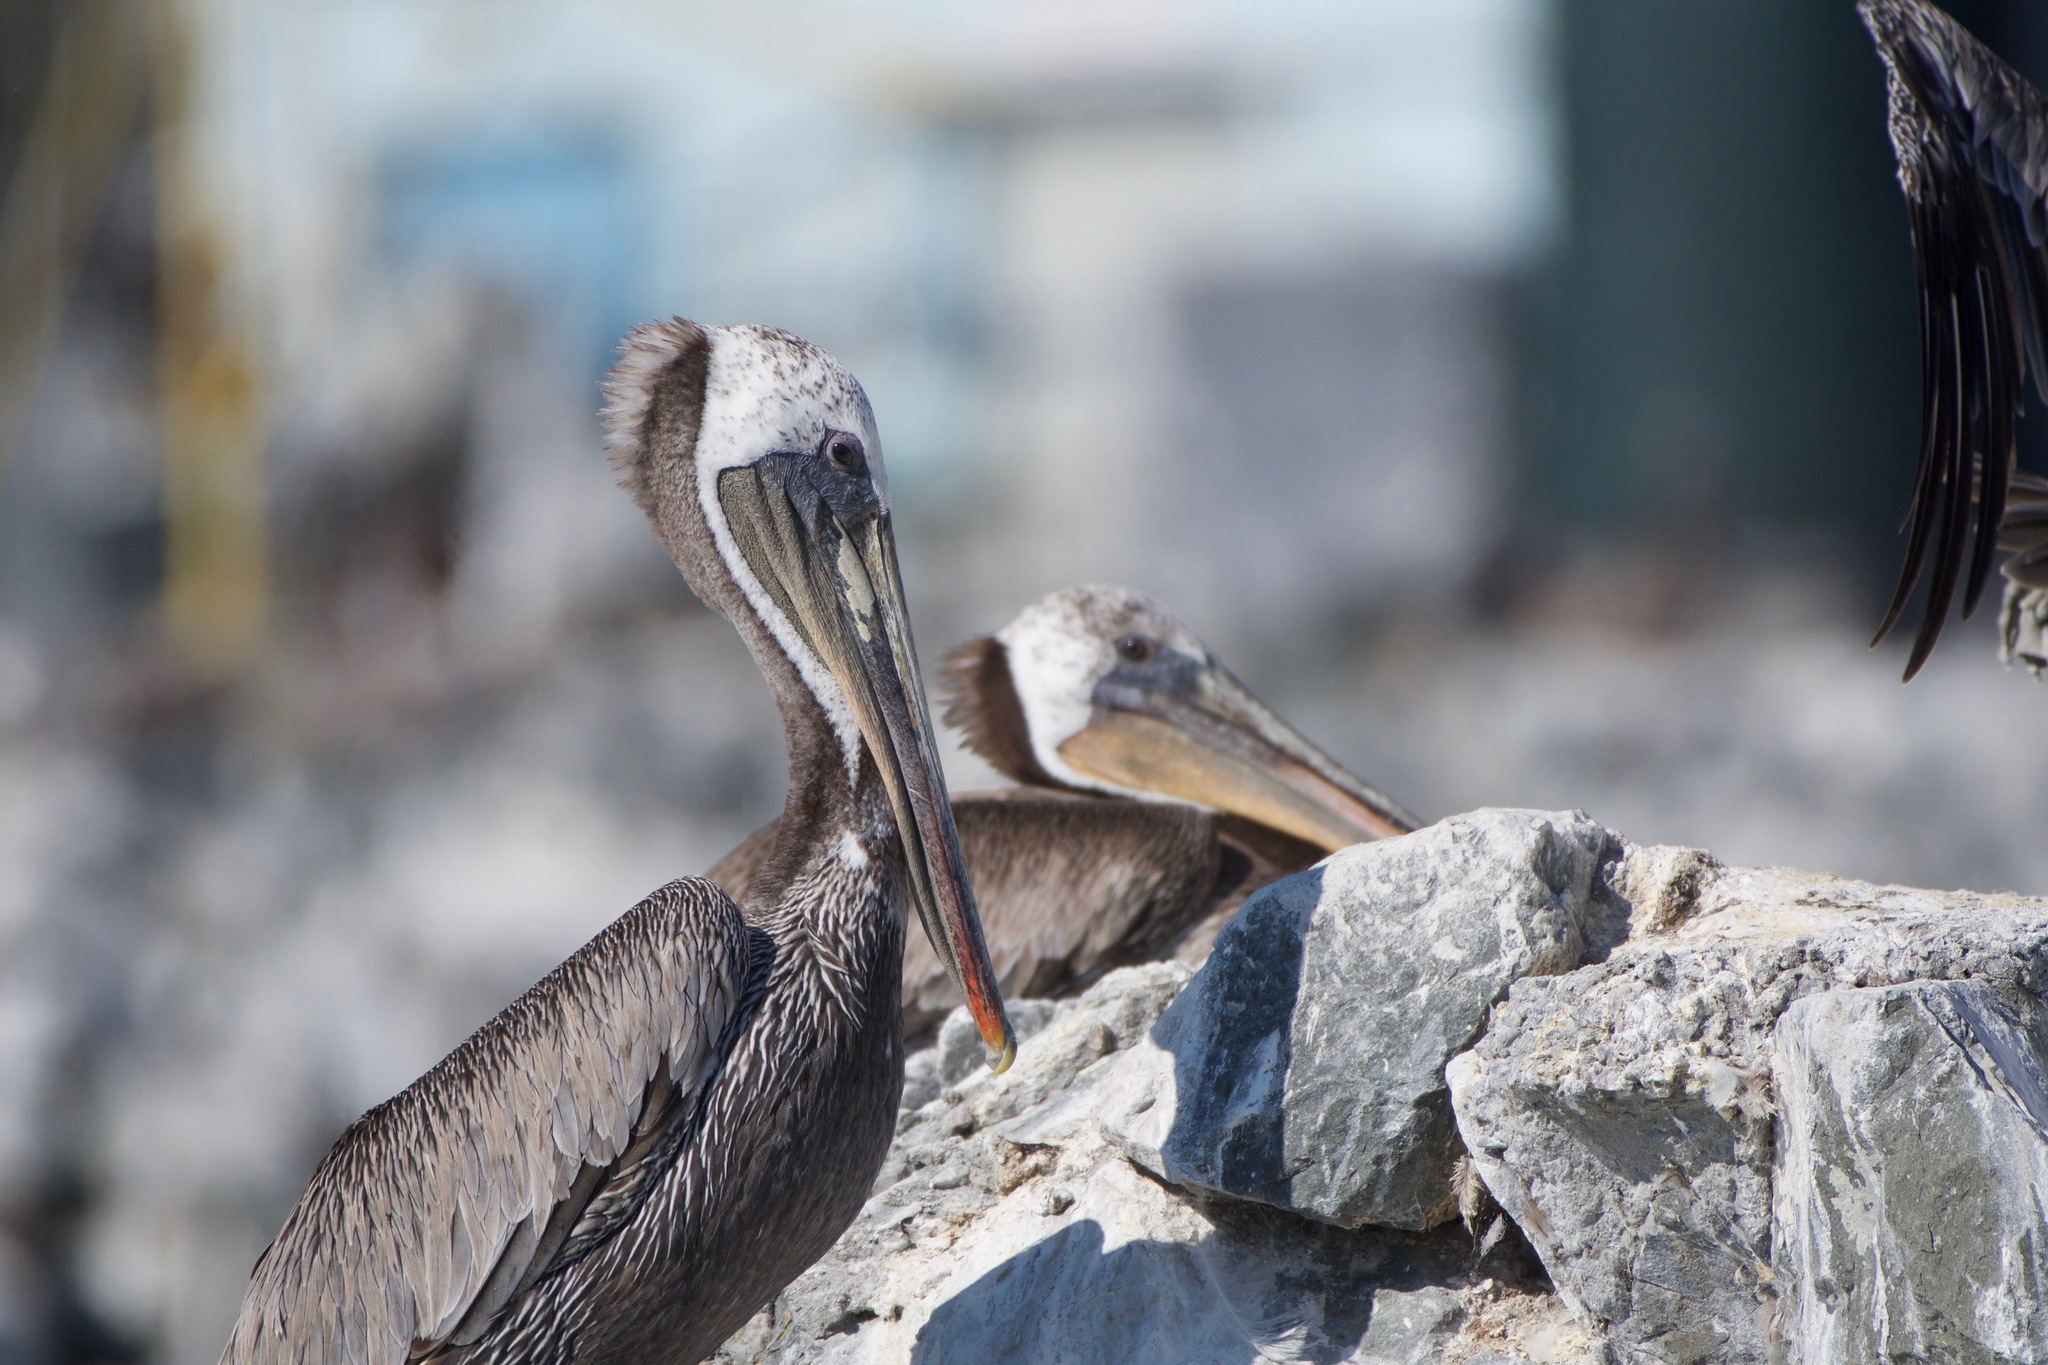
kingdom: Animalia
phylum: Chordata
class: Aves
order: Pelecaniformes
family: Pelecanidae
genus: Pelecanus
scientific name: Pelecanus occidentalis
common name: Brown pelican
